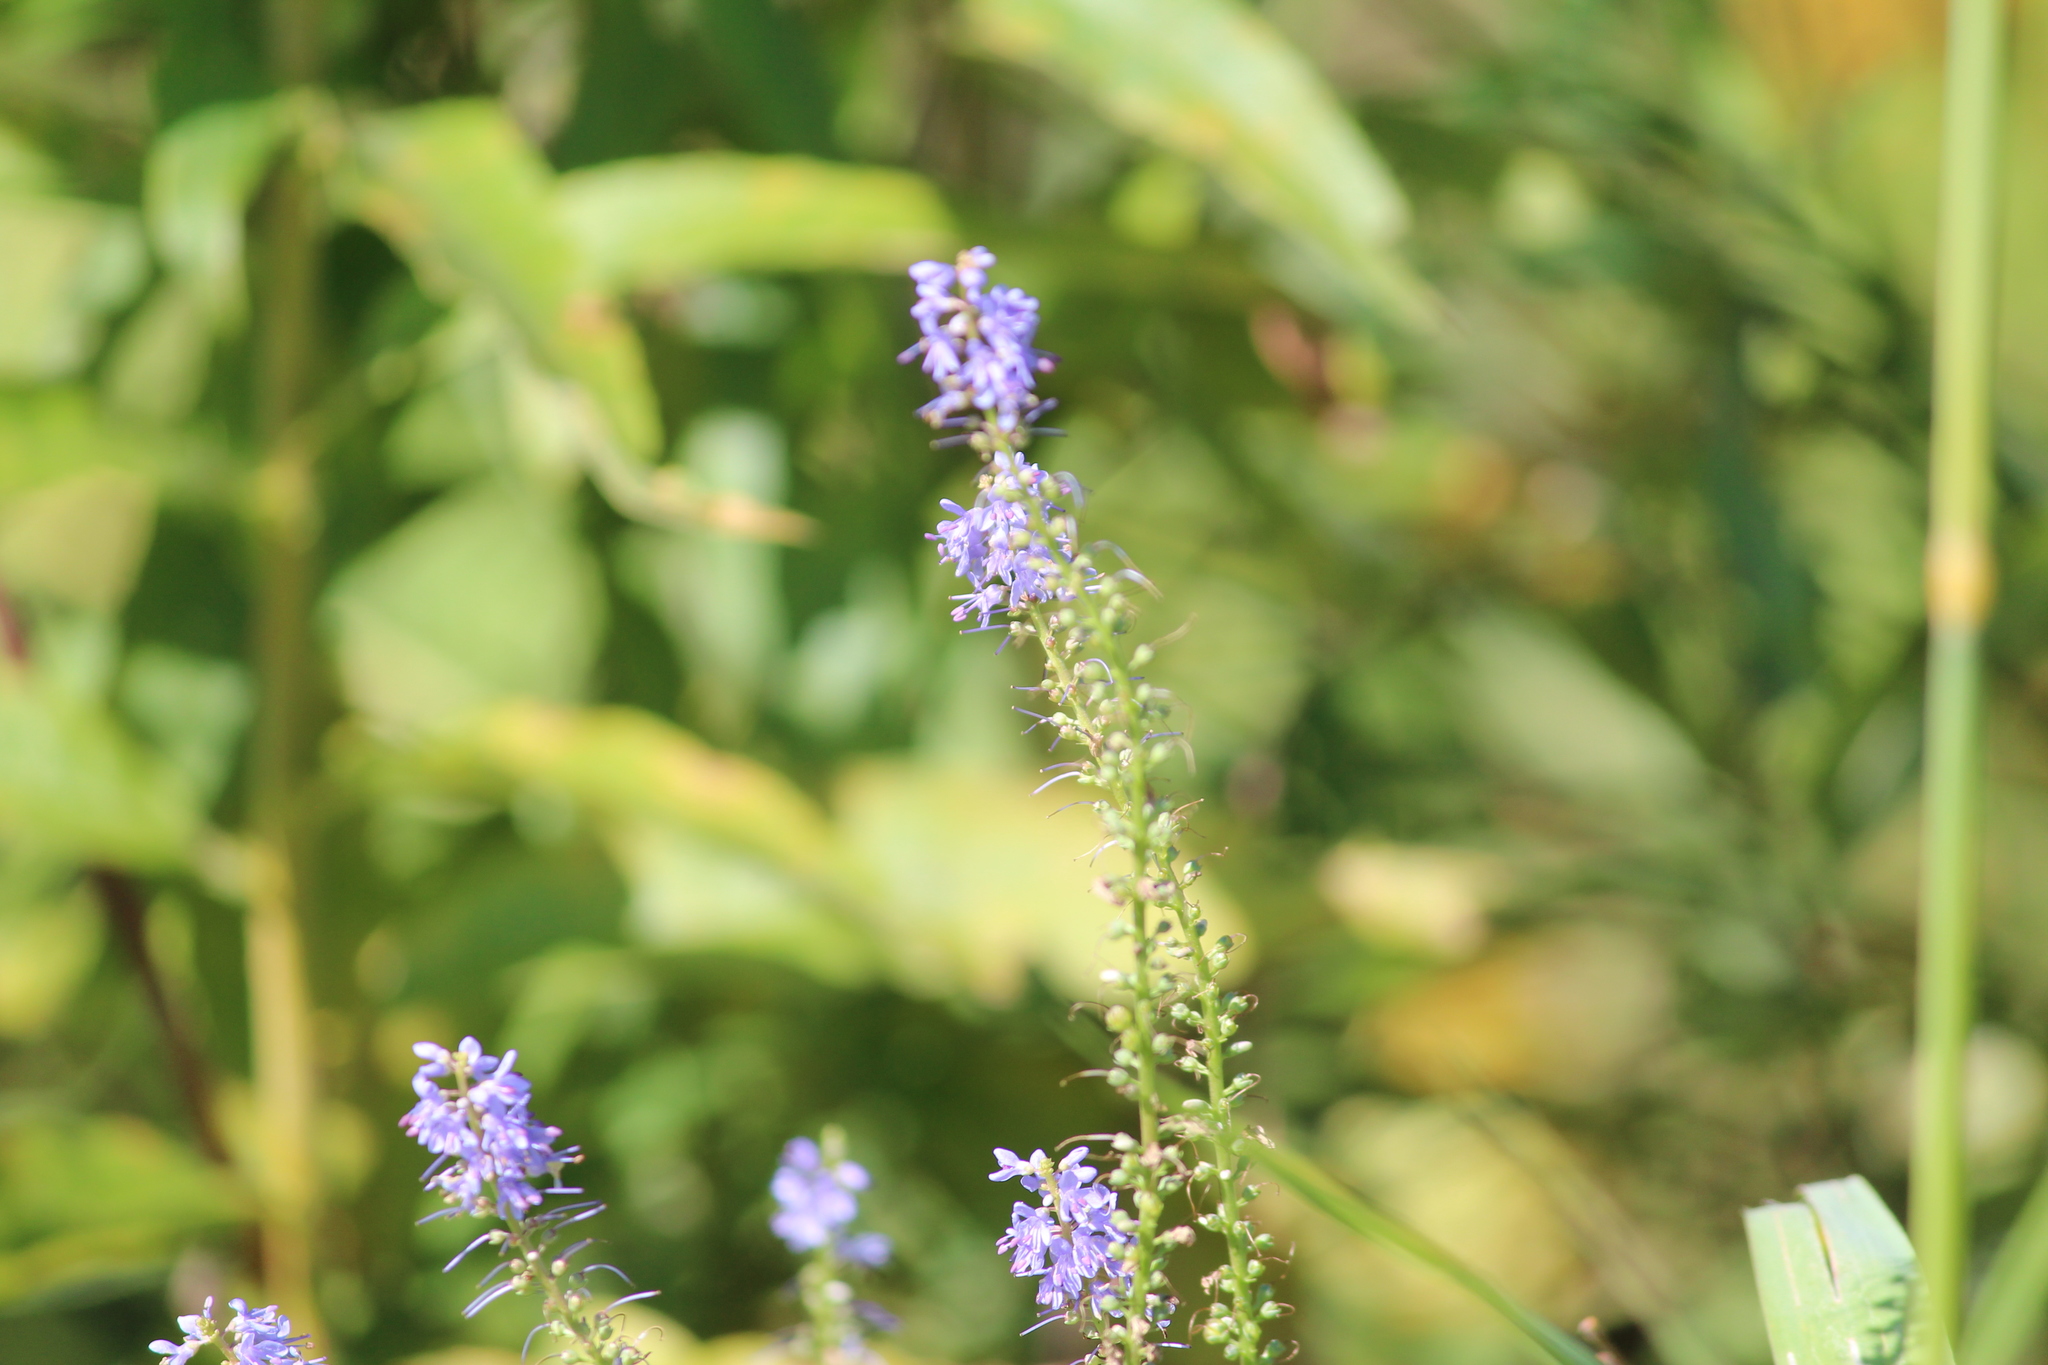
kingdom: Plantae
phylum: Tracheophyta
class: Magnoliopsida
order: Lamiales
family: Plantaginaceae
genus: Veronica
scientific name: Veronica longifolia
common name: Garden speedwell
